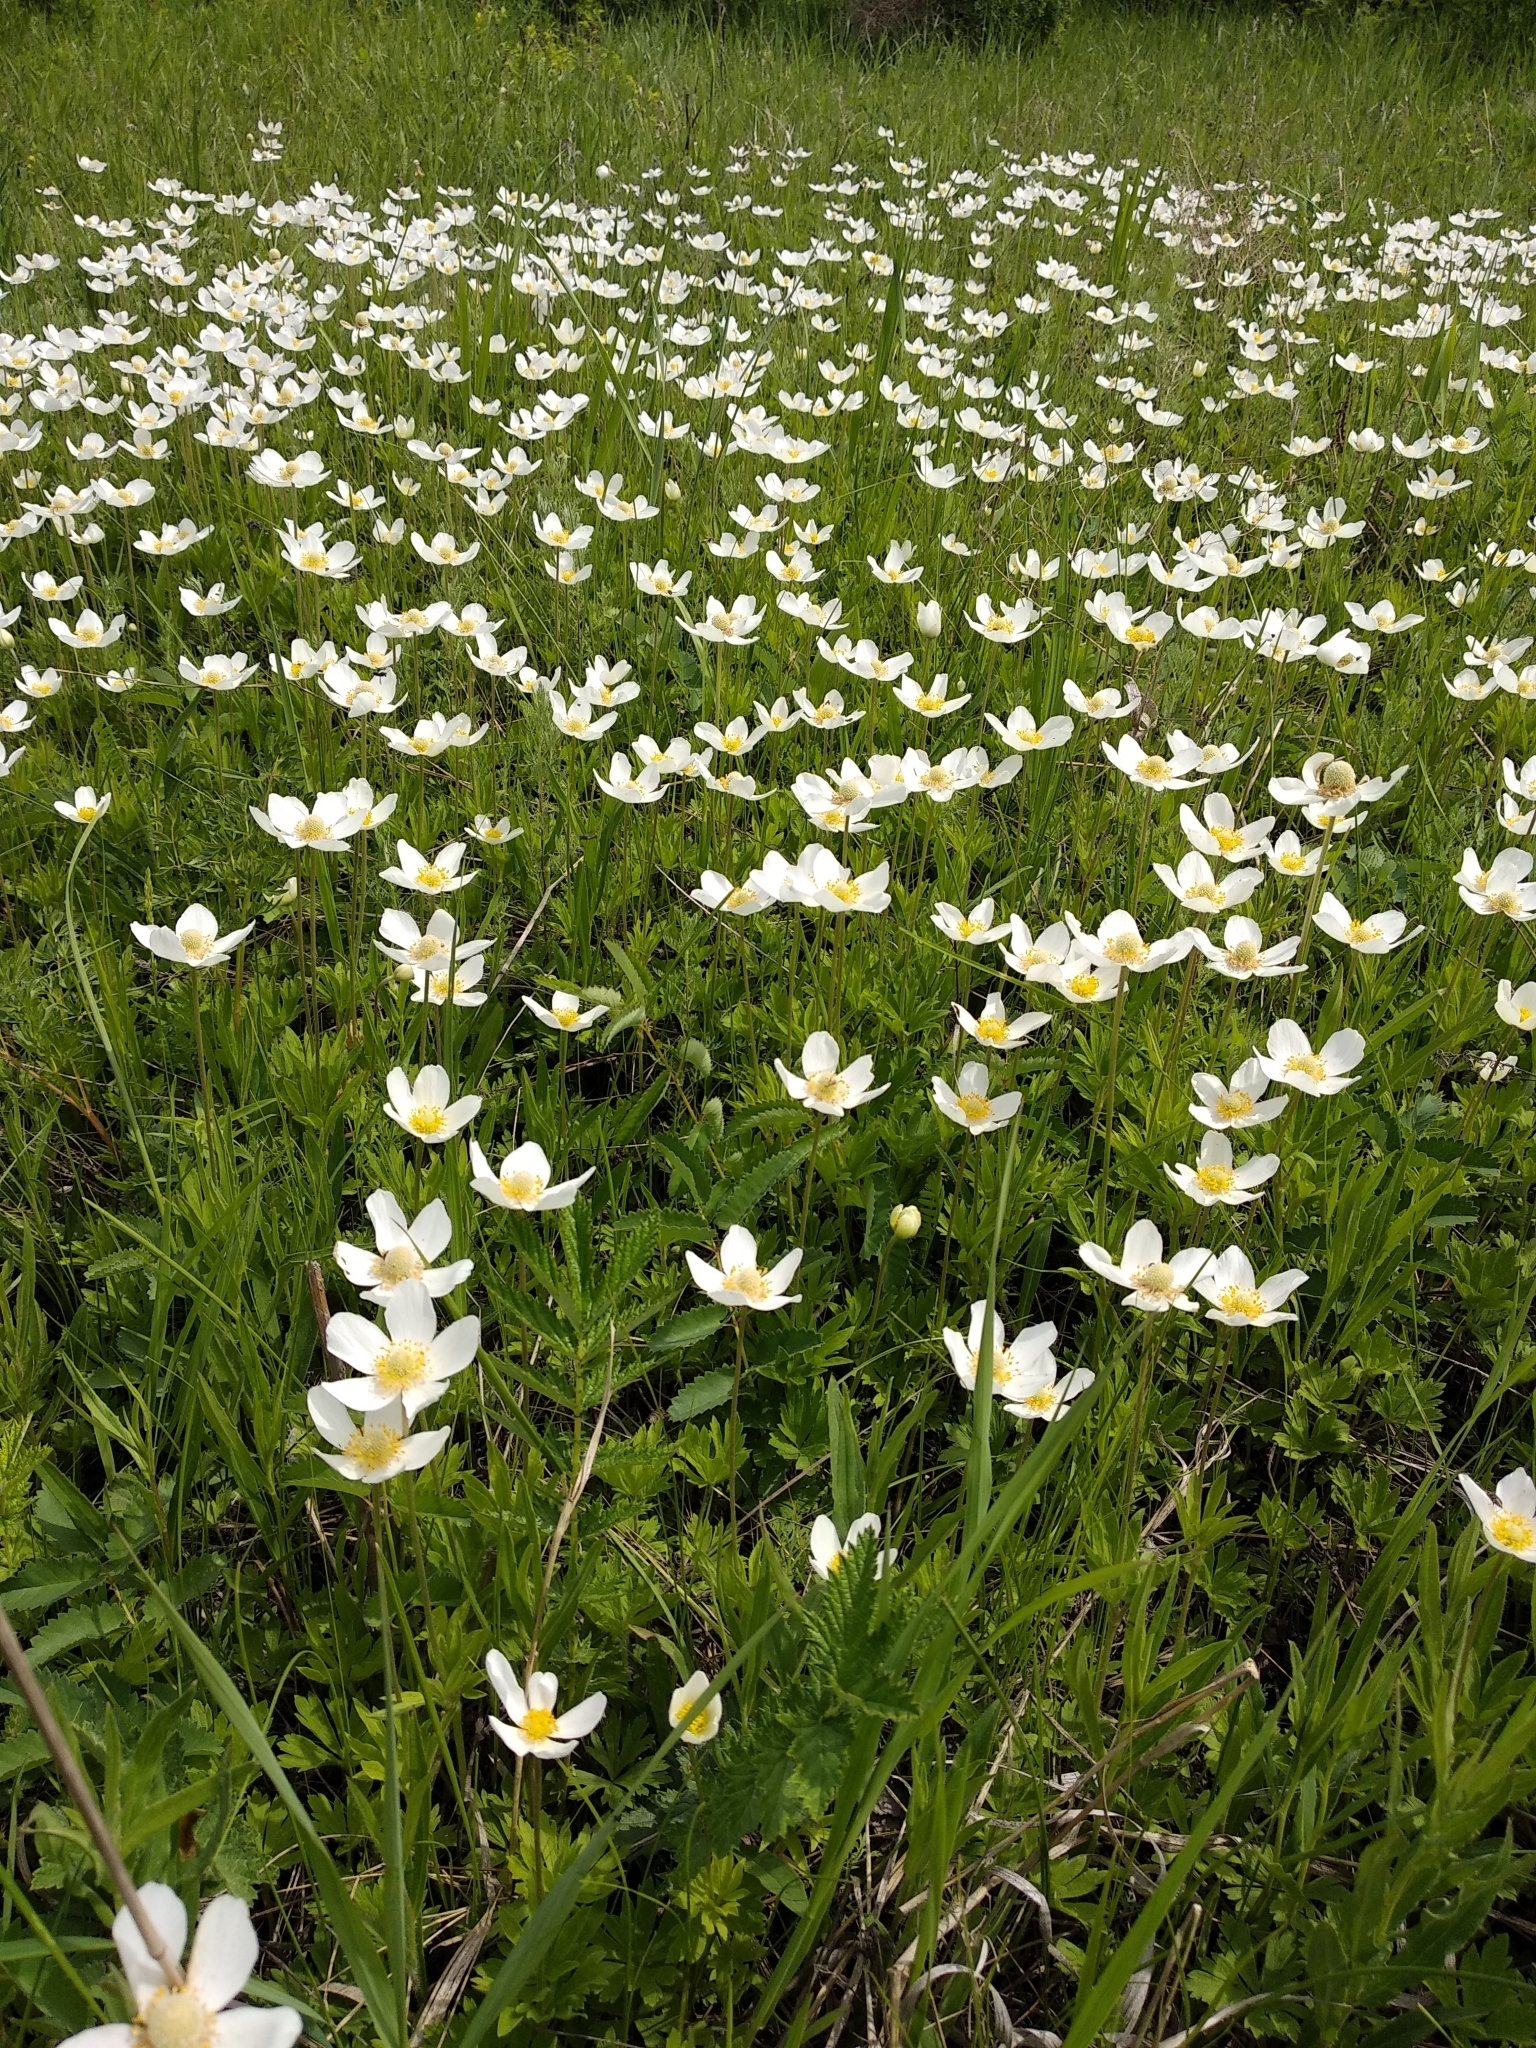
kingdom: Plantae
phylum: Tracheophyta
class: Magnoliopsida
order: Ranunculales
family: Ranunculaceae
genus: Anemone
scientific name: Anemone sylvestris
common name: Snowdrop anemone
